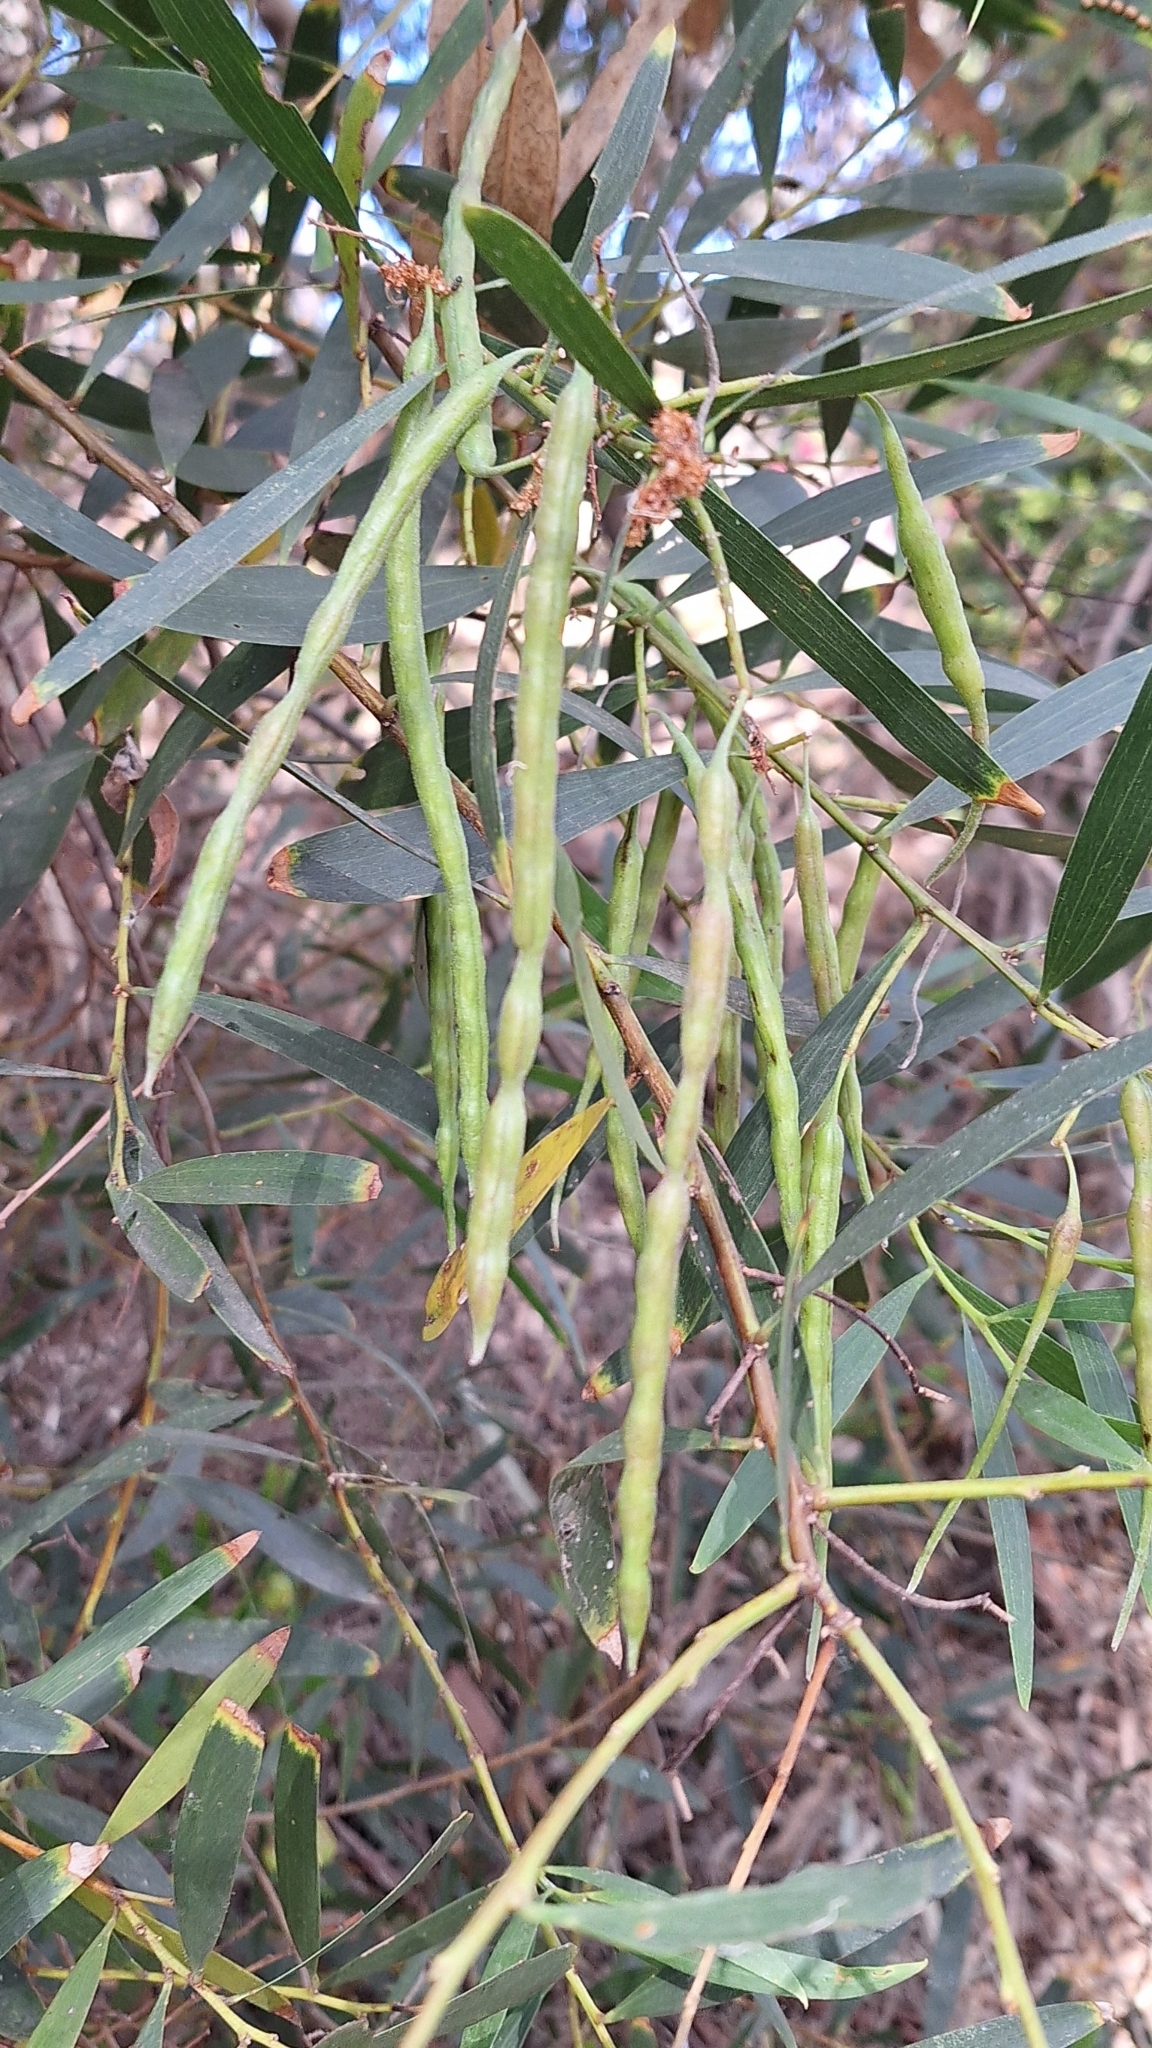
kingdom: Plantae
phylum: Tracheophyta
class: Magnoliopsida
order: Fabales
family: Fabaceae
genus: Acacia
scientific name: Acacia longifolia
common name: Sydney golden wattle
